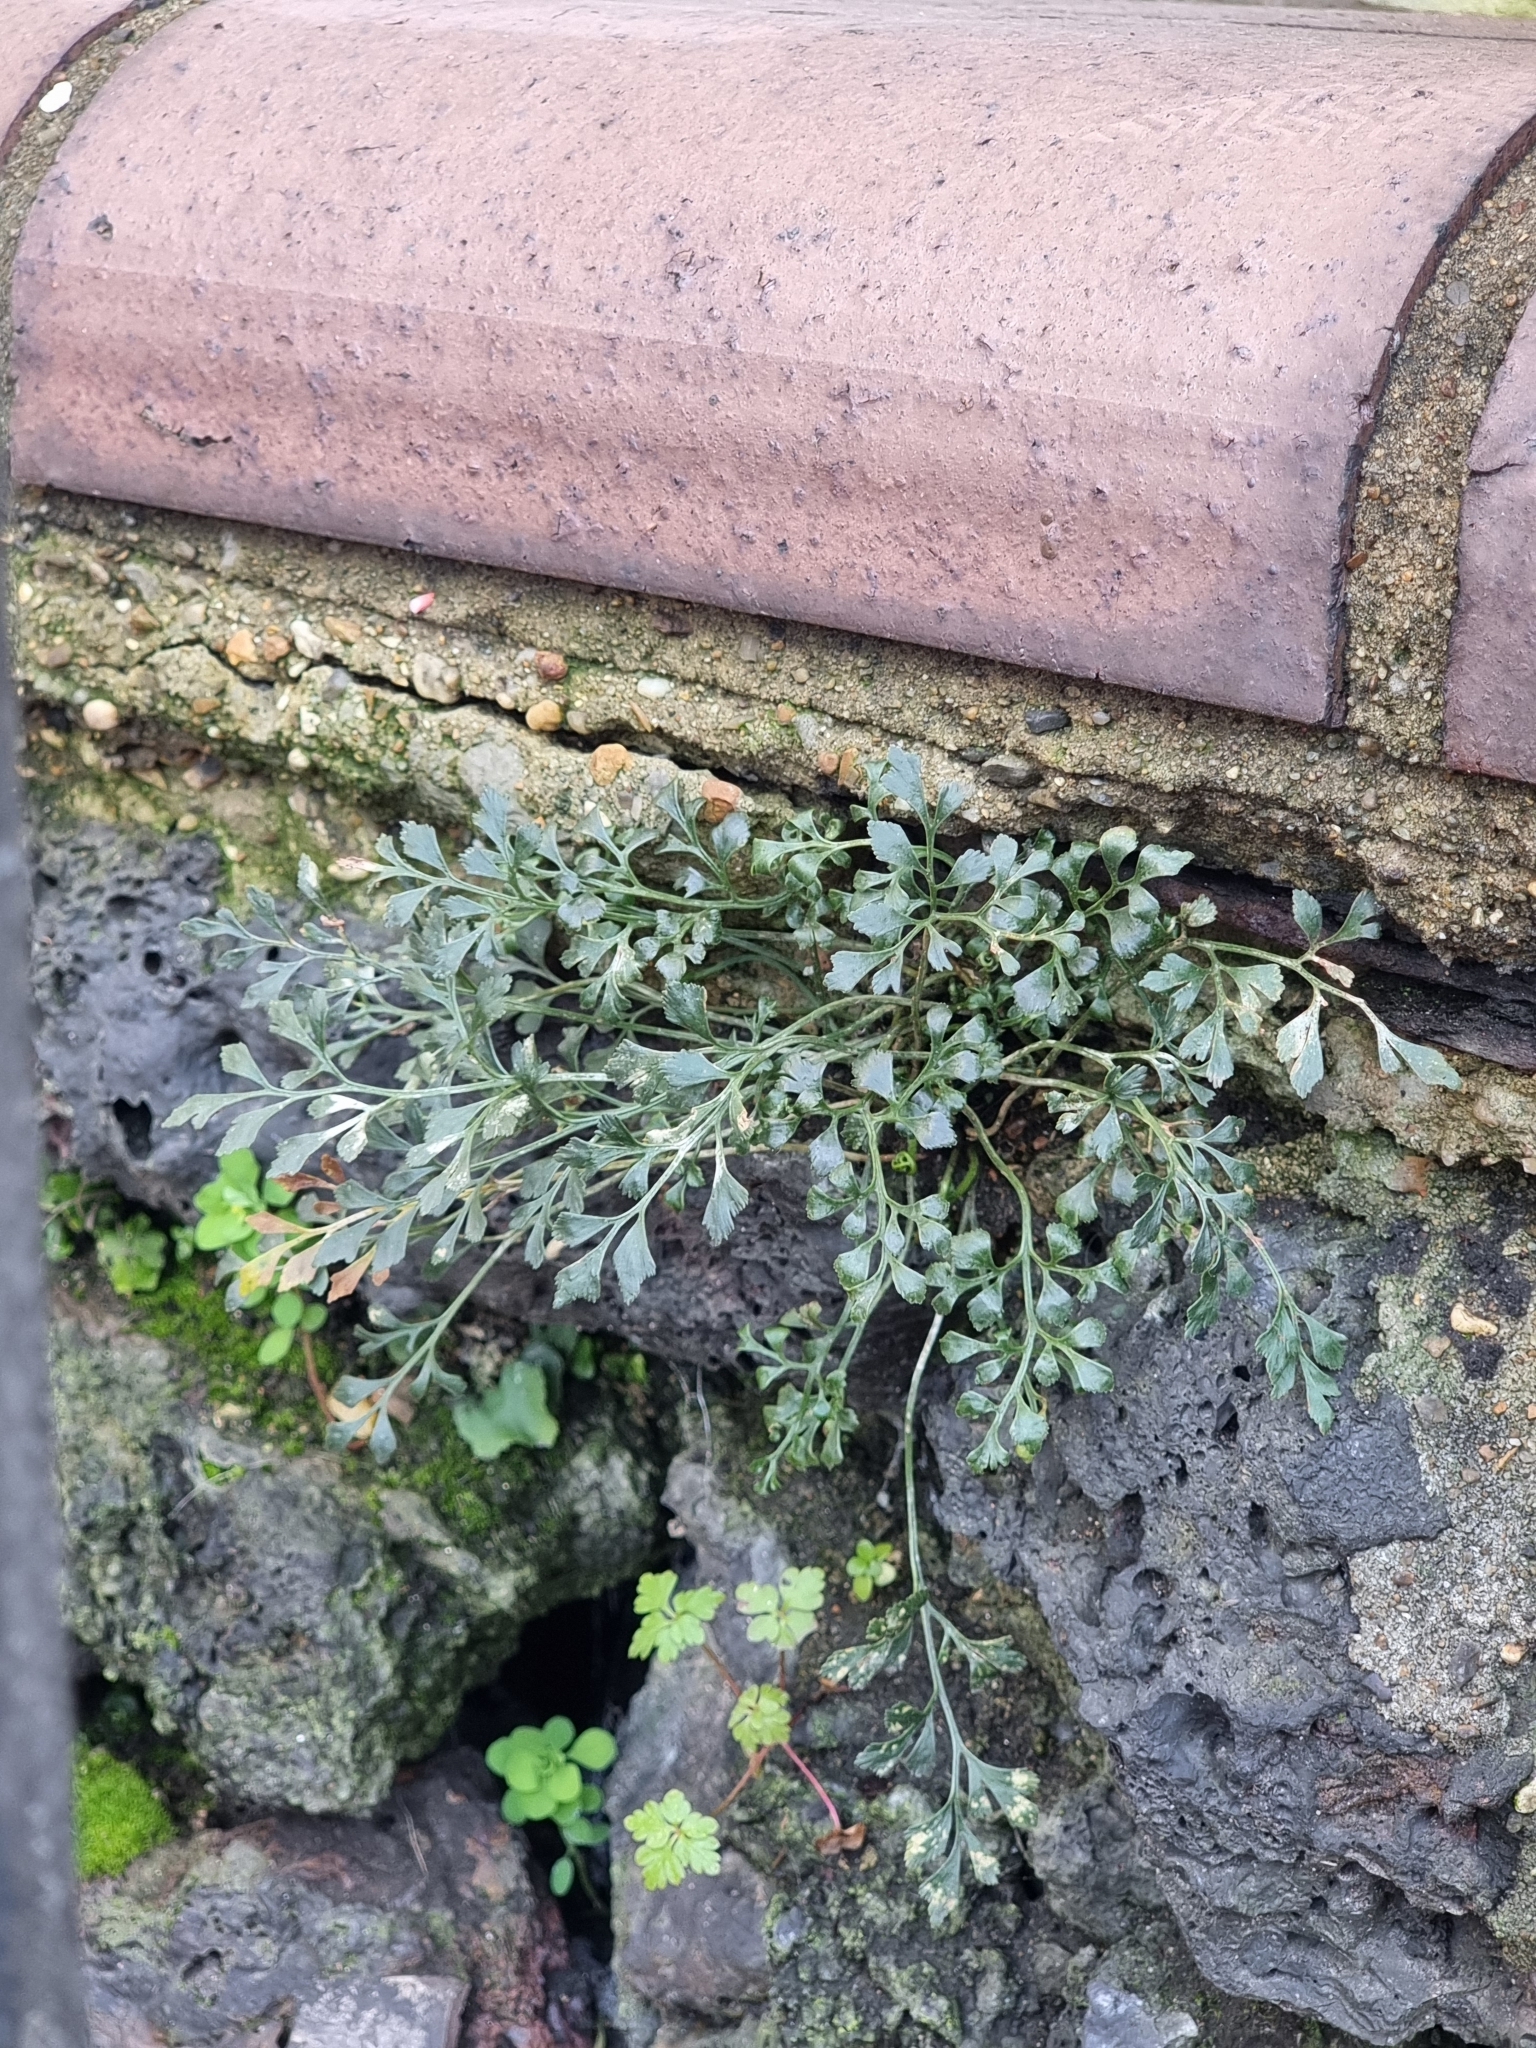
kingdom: Plantae
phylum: Tracheophyta
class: Polypodiopsida
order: Polypodiales
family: Aspleniaceae
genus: Asplenium
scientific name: Asplenium ruta-muraria
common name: Wall-rue
